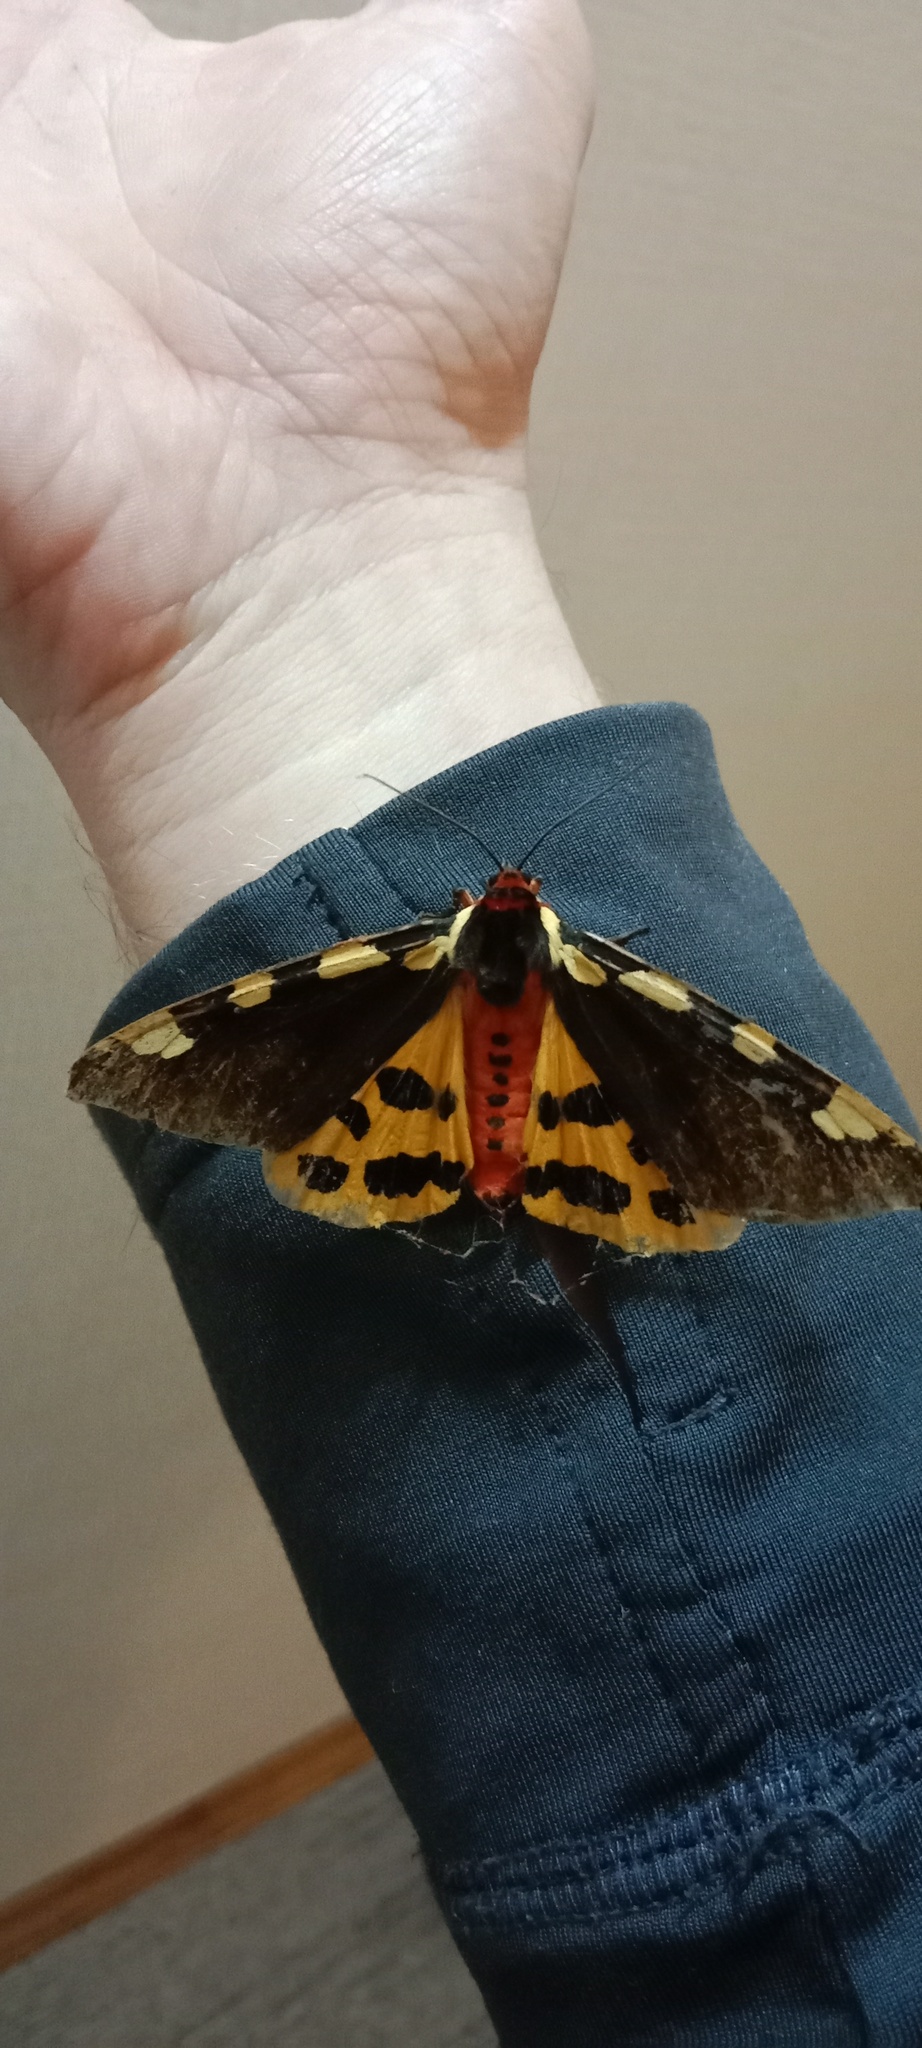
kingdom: Animalia
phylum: Arthropoda
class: Insecta
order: Lepidoptera
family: Erebidae
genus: Pericallia
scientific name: Pericallia matronula
